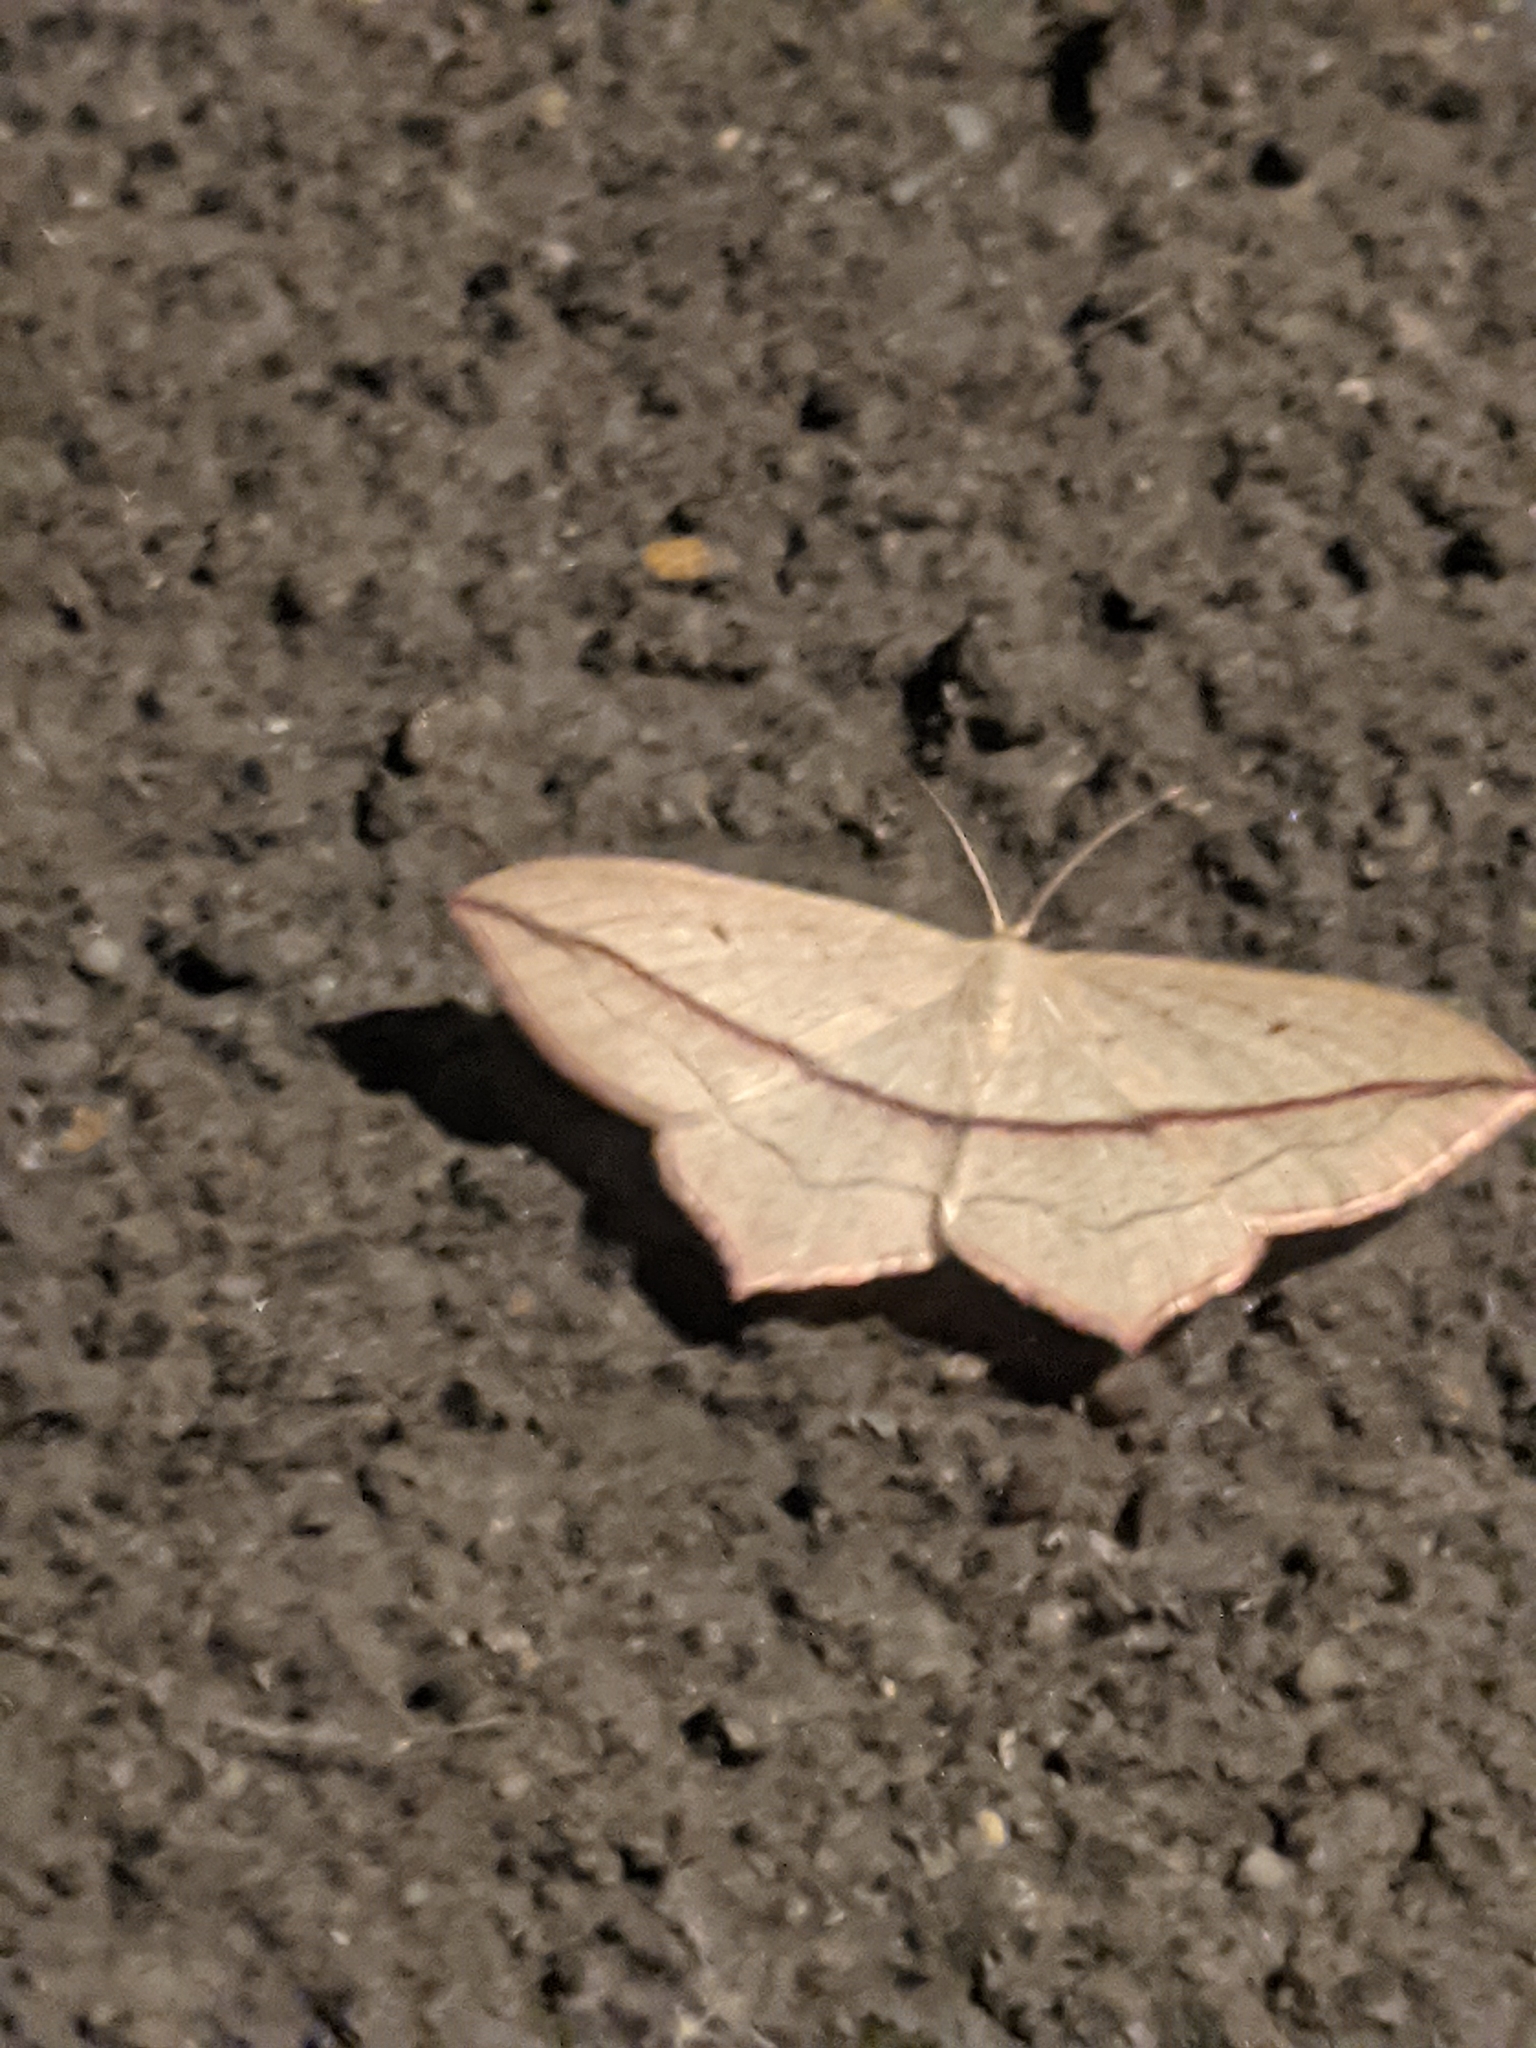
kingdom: Animalia
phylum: Arthropoda
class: Insecta
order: Lepidoptera
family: Geometridae
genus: Timandra
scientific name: Timandra comae
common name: Blood-vein
